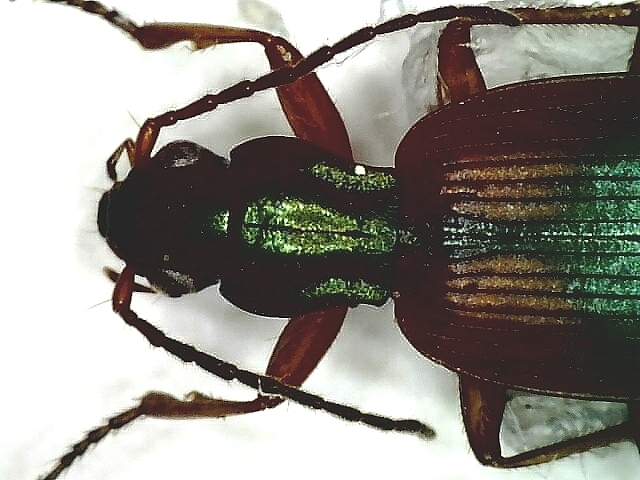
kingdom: Animalia
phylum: Arthropoda
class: Insecta
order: Coleoptera
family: Carabidae
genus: Anchomenus
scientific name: Anchomenus dorsalis
